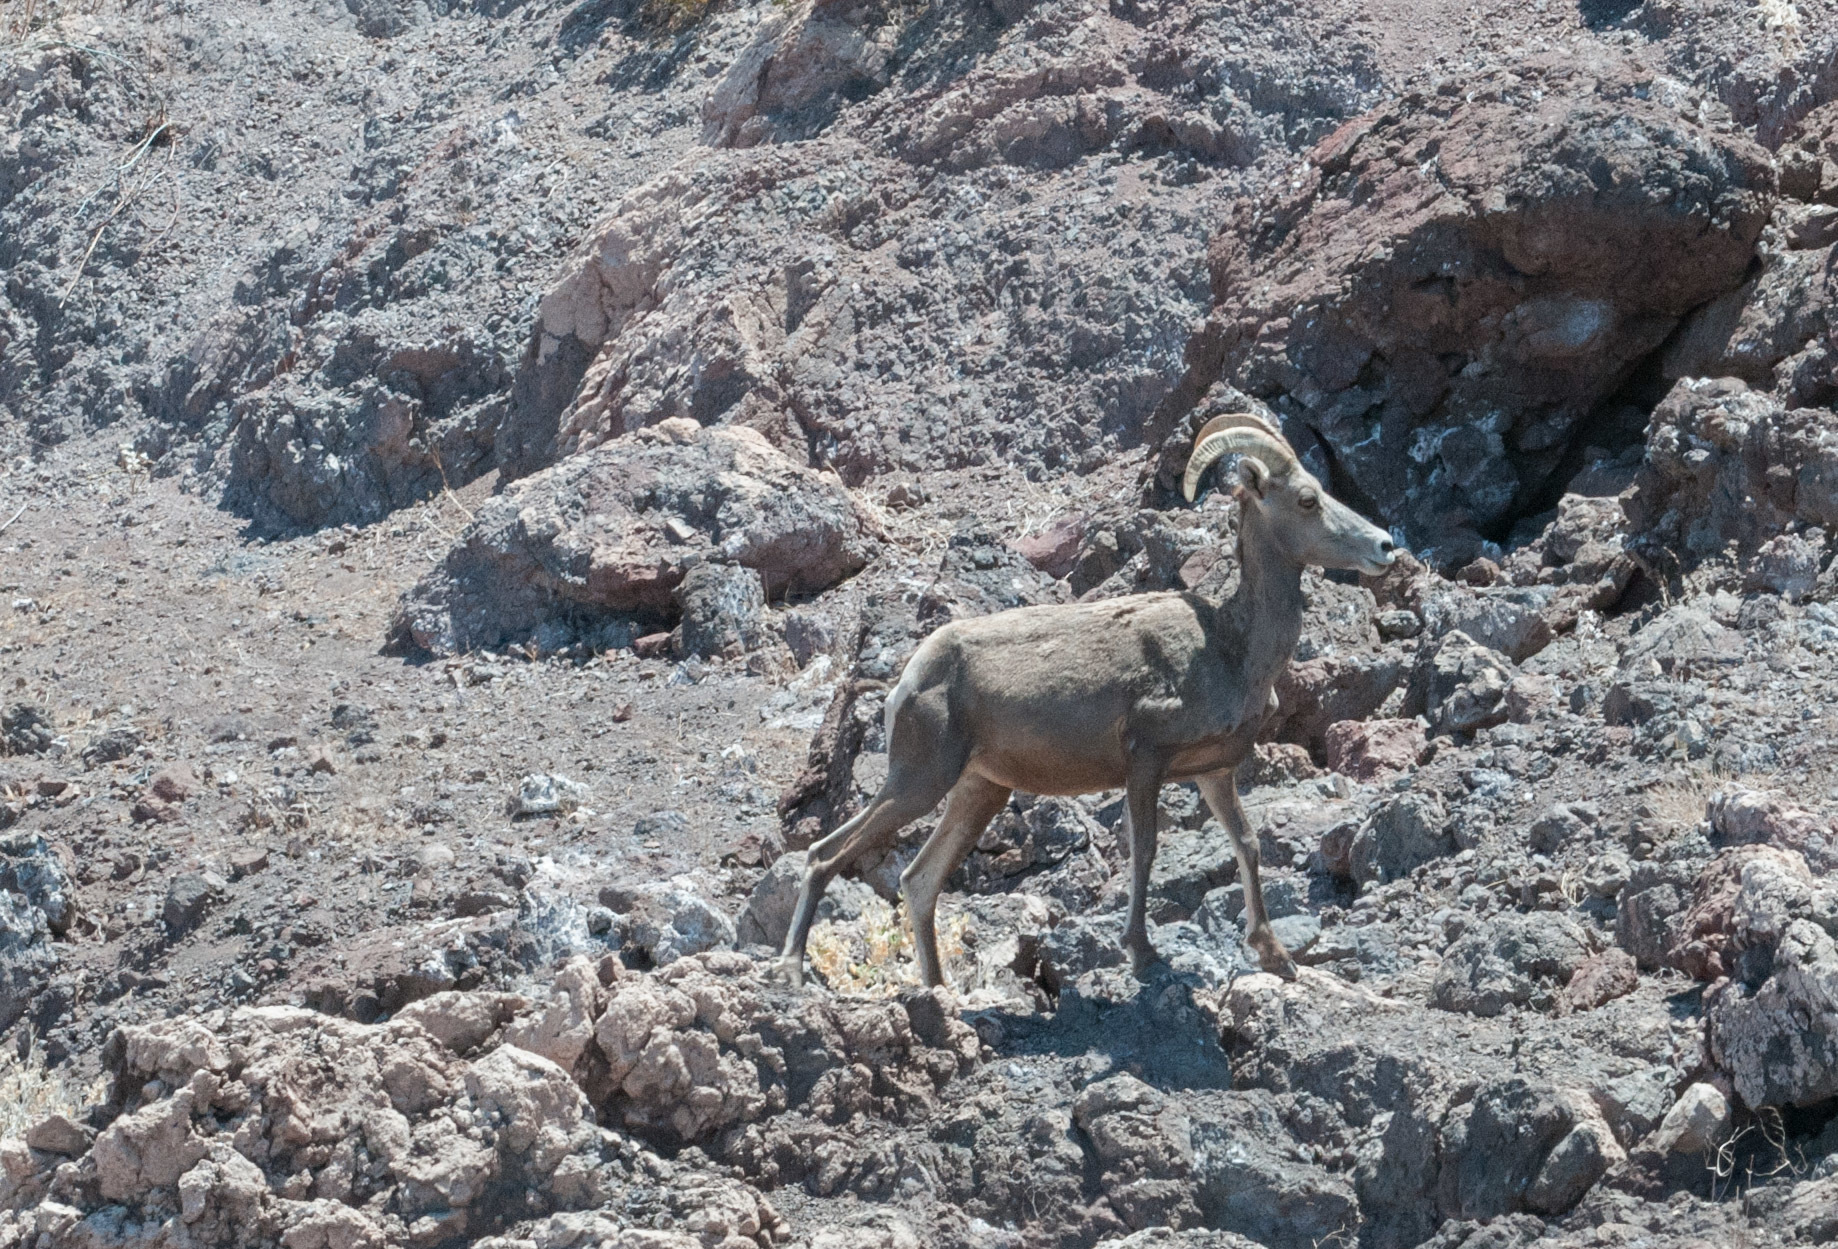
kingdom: Animalia
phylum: Chordata
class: Mammalia
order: Artiodactyla
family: Bovidae
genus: Ovis
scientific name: Ovis canadensis
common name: Bighorn sheep
